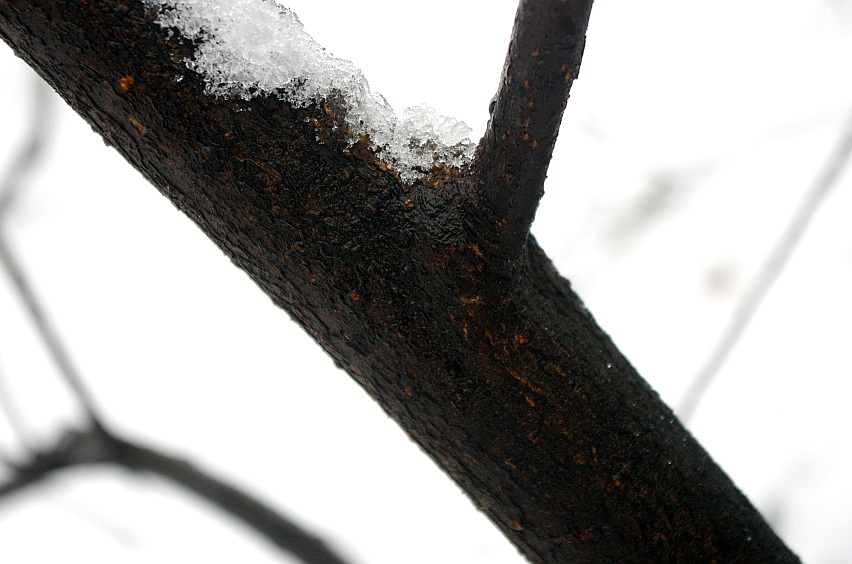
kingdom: Plantae
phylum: Tracheophyta
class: Magnoliopsida
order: Fagales
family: Betulaceae
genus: Alnus
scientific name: Alnus glutinosa
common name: Black alder
